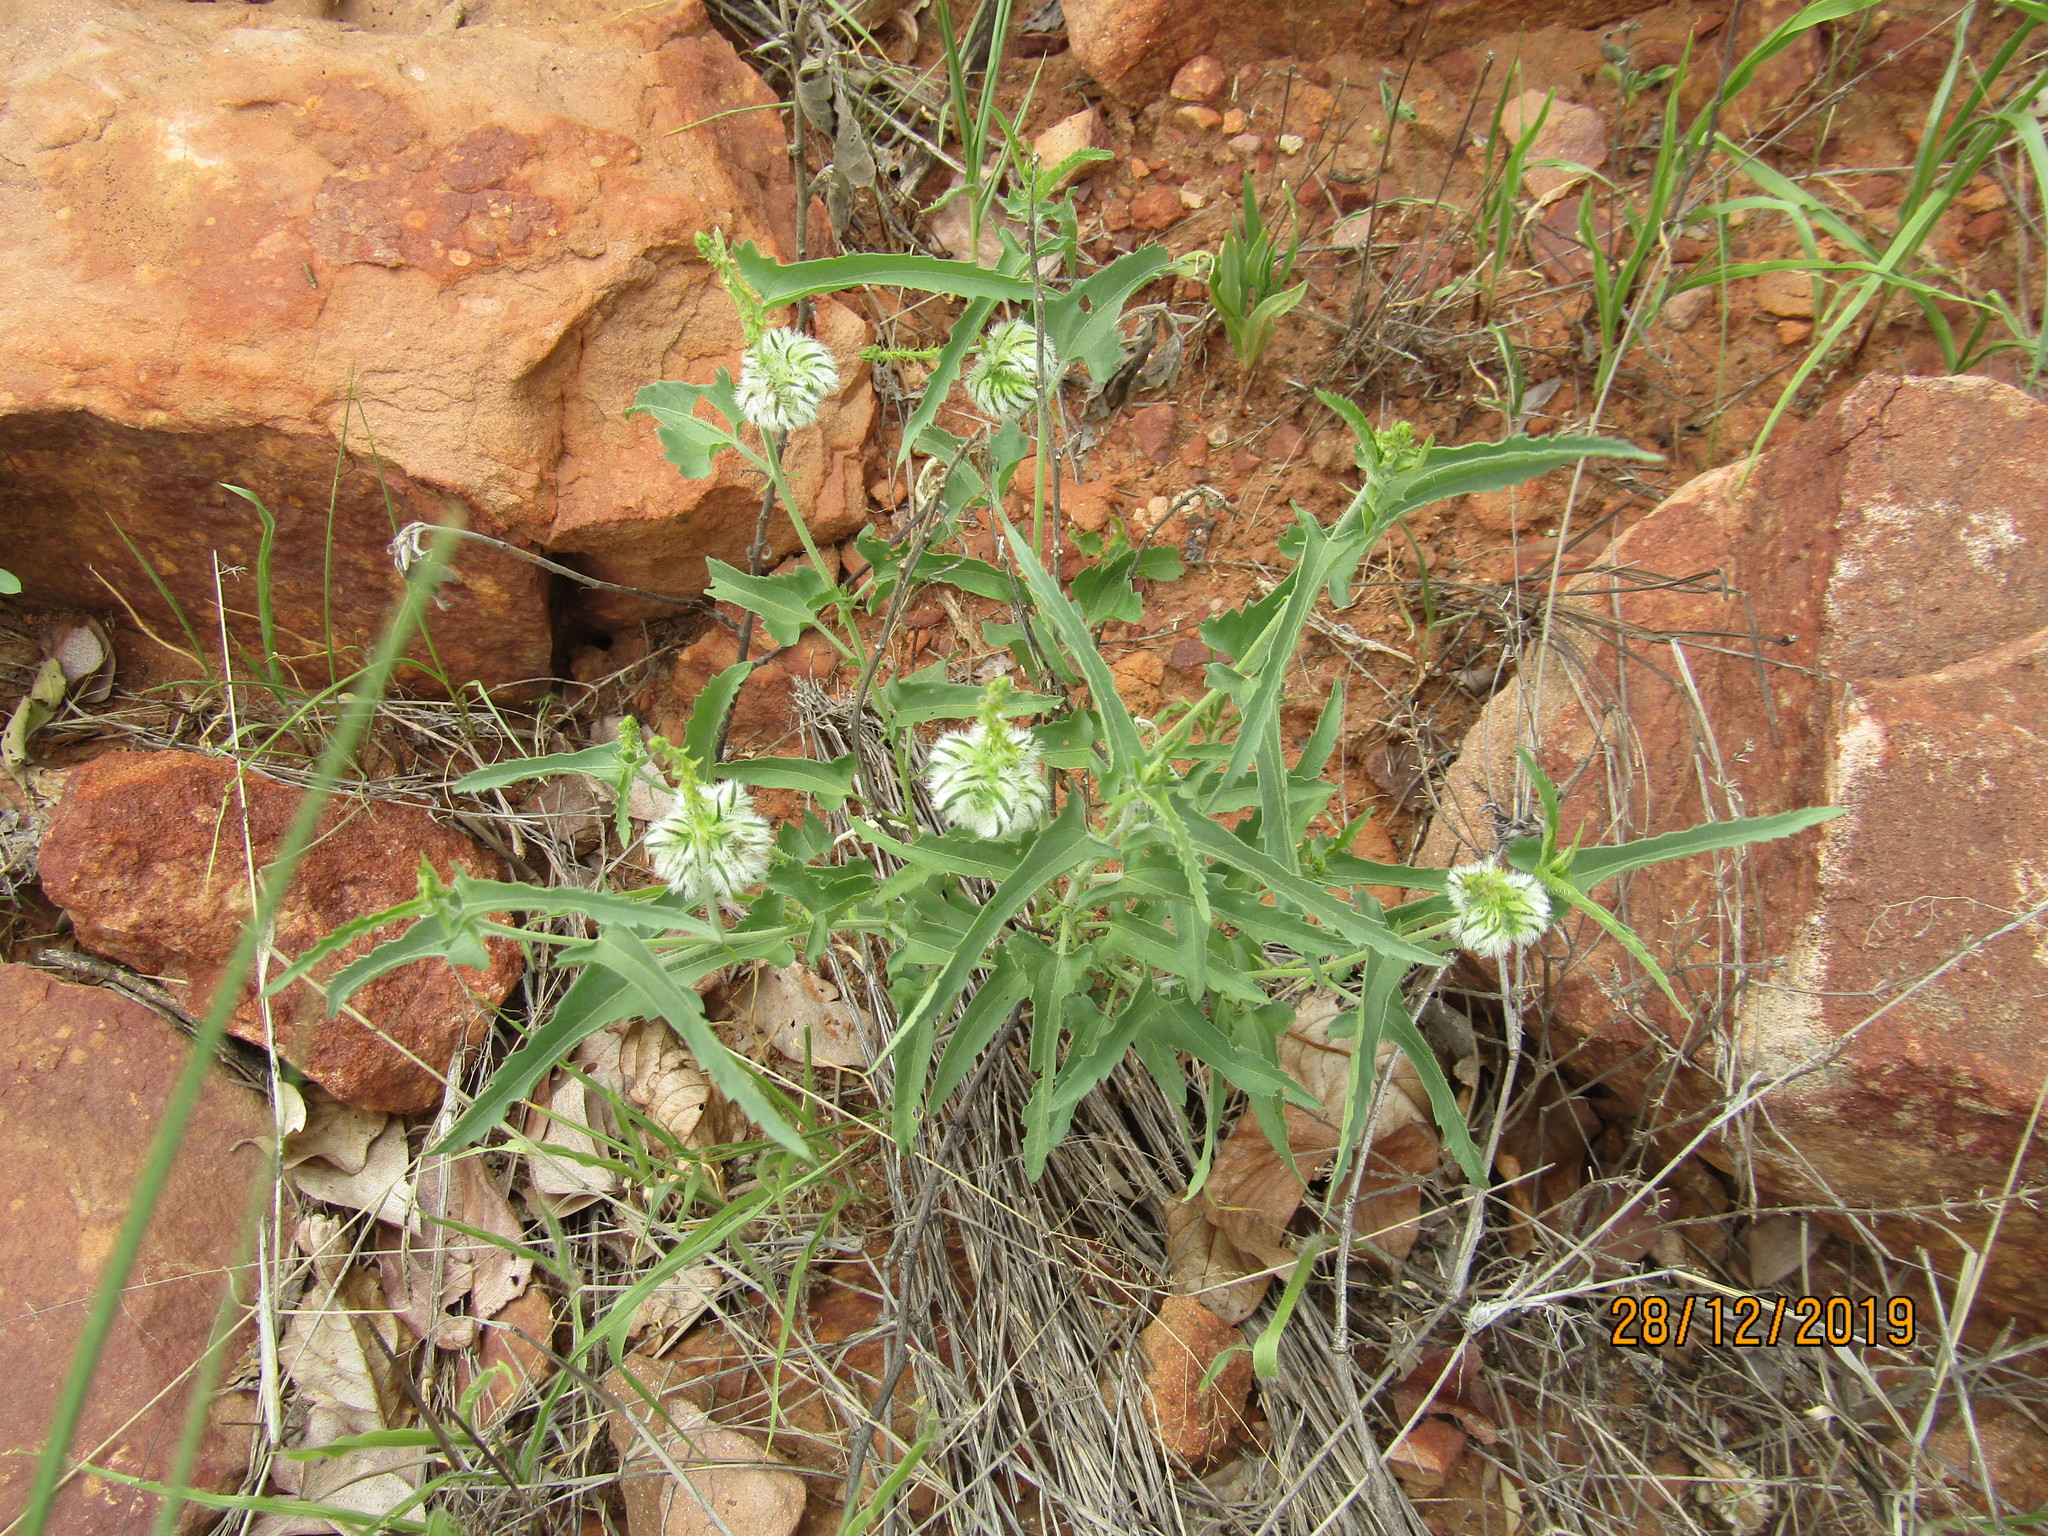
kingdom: Plantae
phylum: Tracheophyta
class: Magnoliopsida
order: Malpighiales
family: Euphorbiaceae
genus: Tragia
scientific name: Tragia dioica
